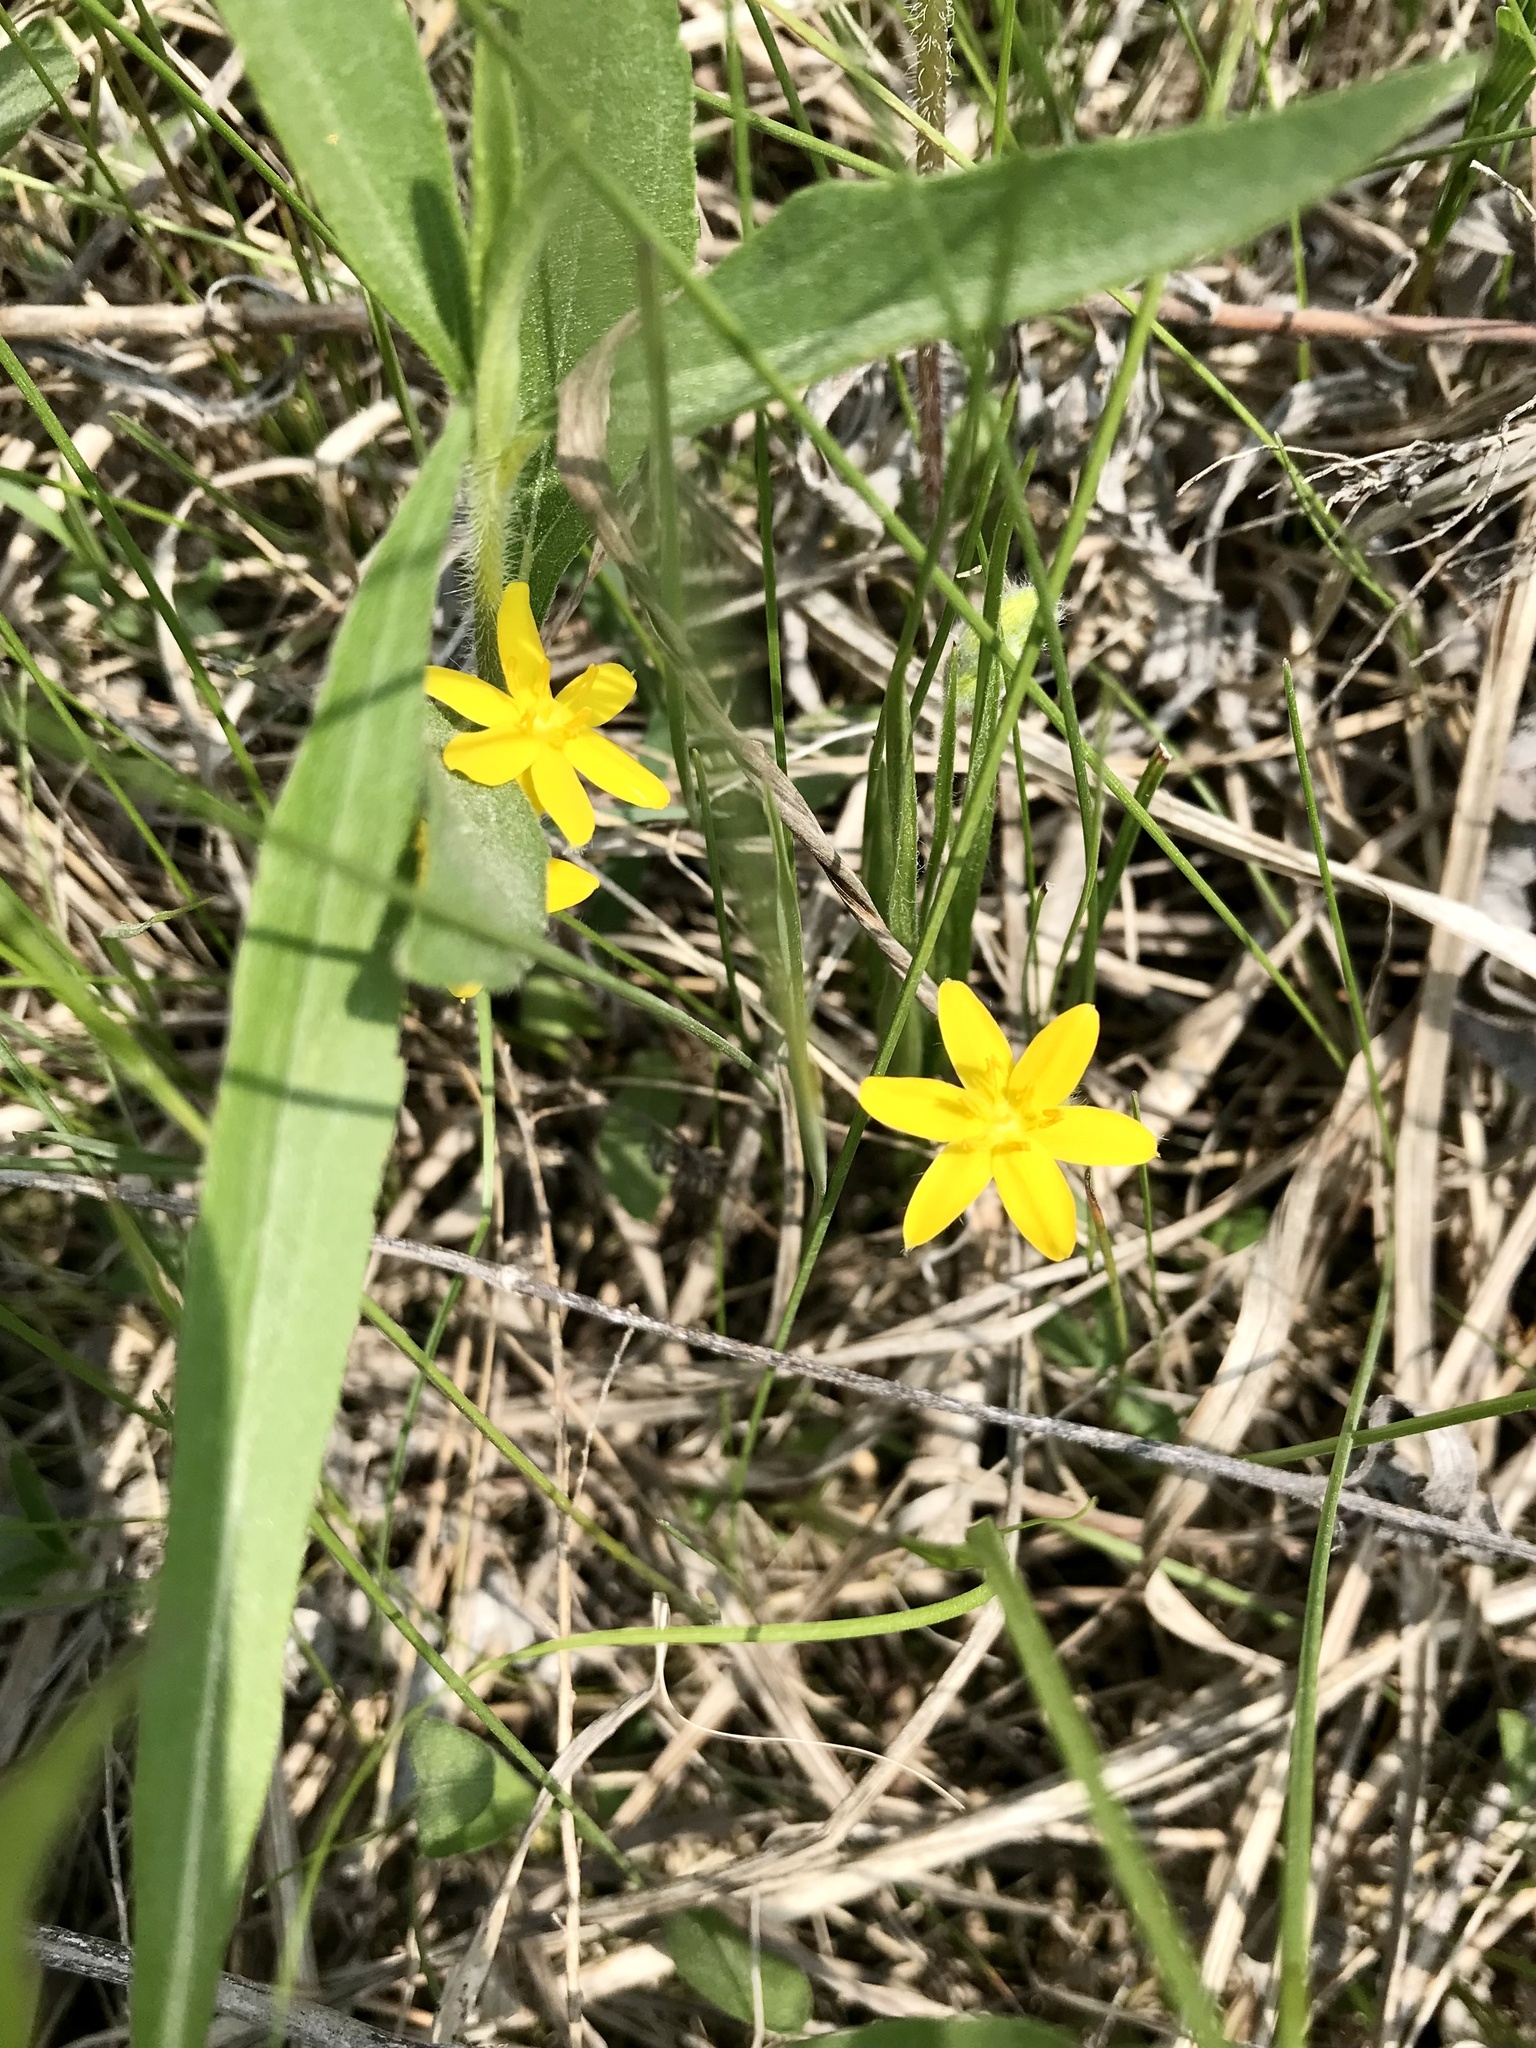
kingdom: Plantae
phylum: Tracheophyta
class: Liliopsida
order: Asparagales
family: Hypoxidaceae
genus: Hypoxis
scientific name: Hypoxis hirsuta
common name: Common goldstar
